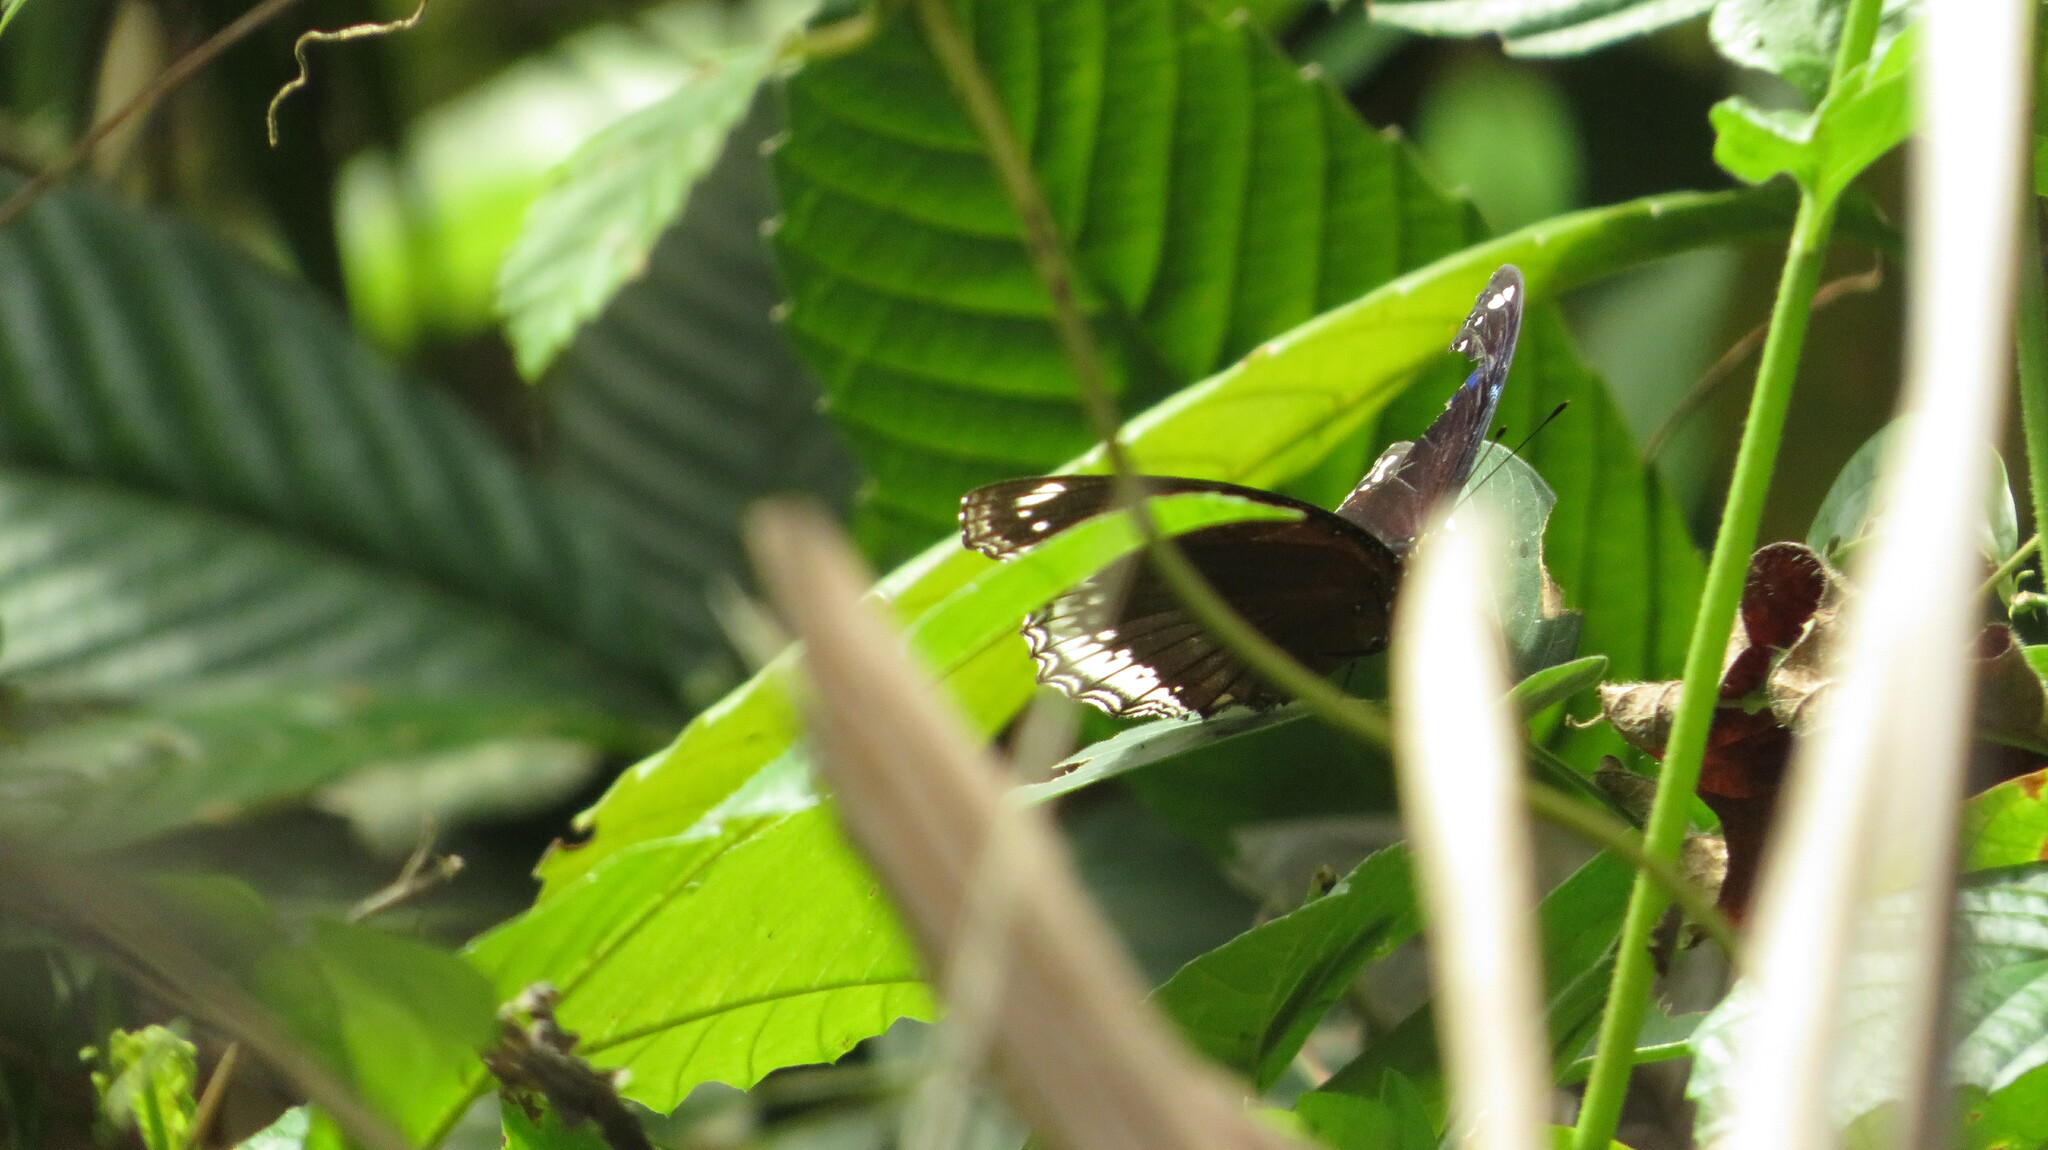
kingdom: Animalia
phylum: Arthropoda
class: Insecta
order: Lepidoptera
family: Nymphalidae
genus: Hypolimnas
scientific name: Hypolimnas bolina
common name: Great eggfly
